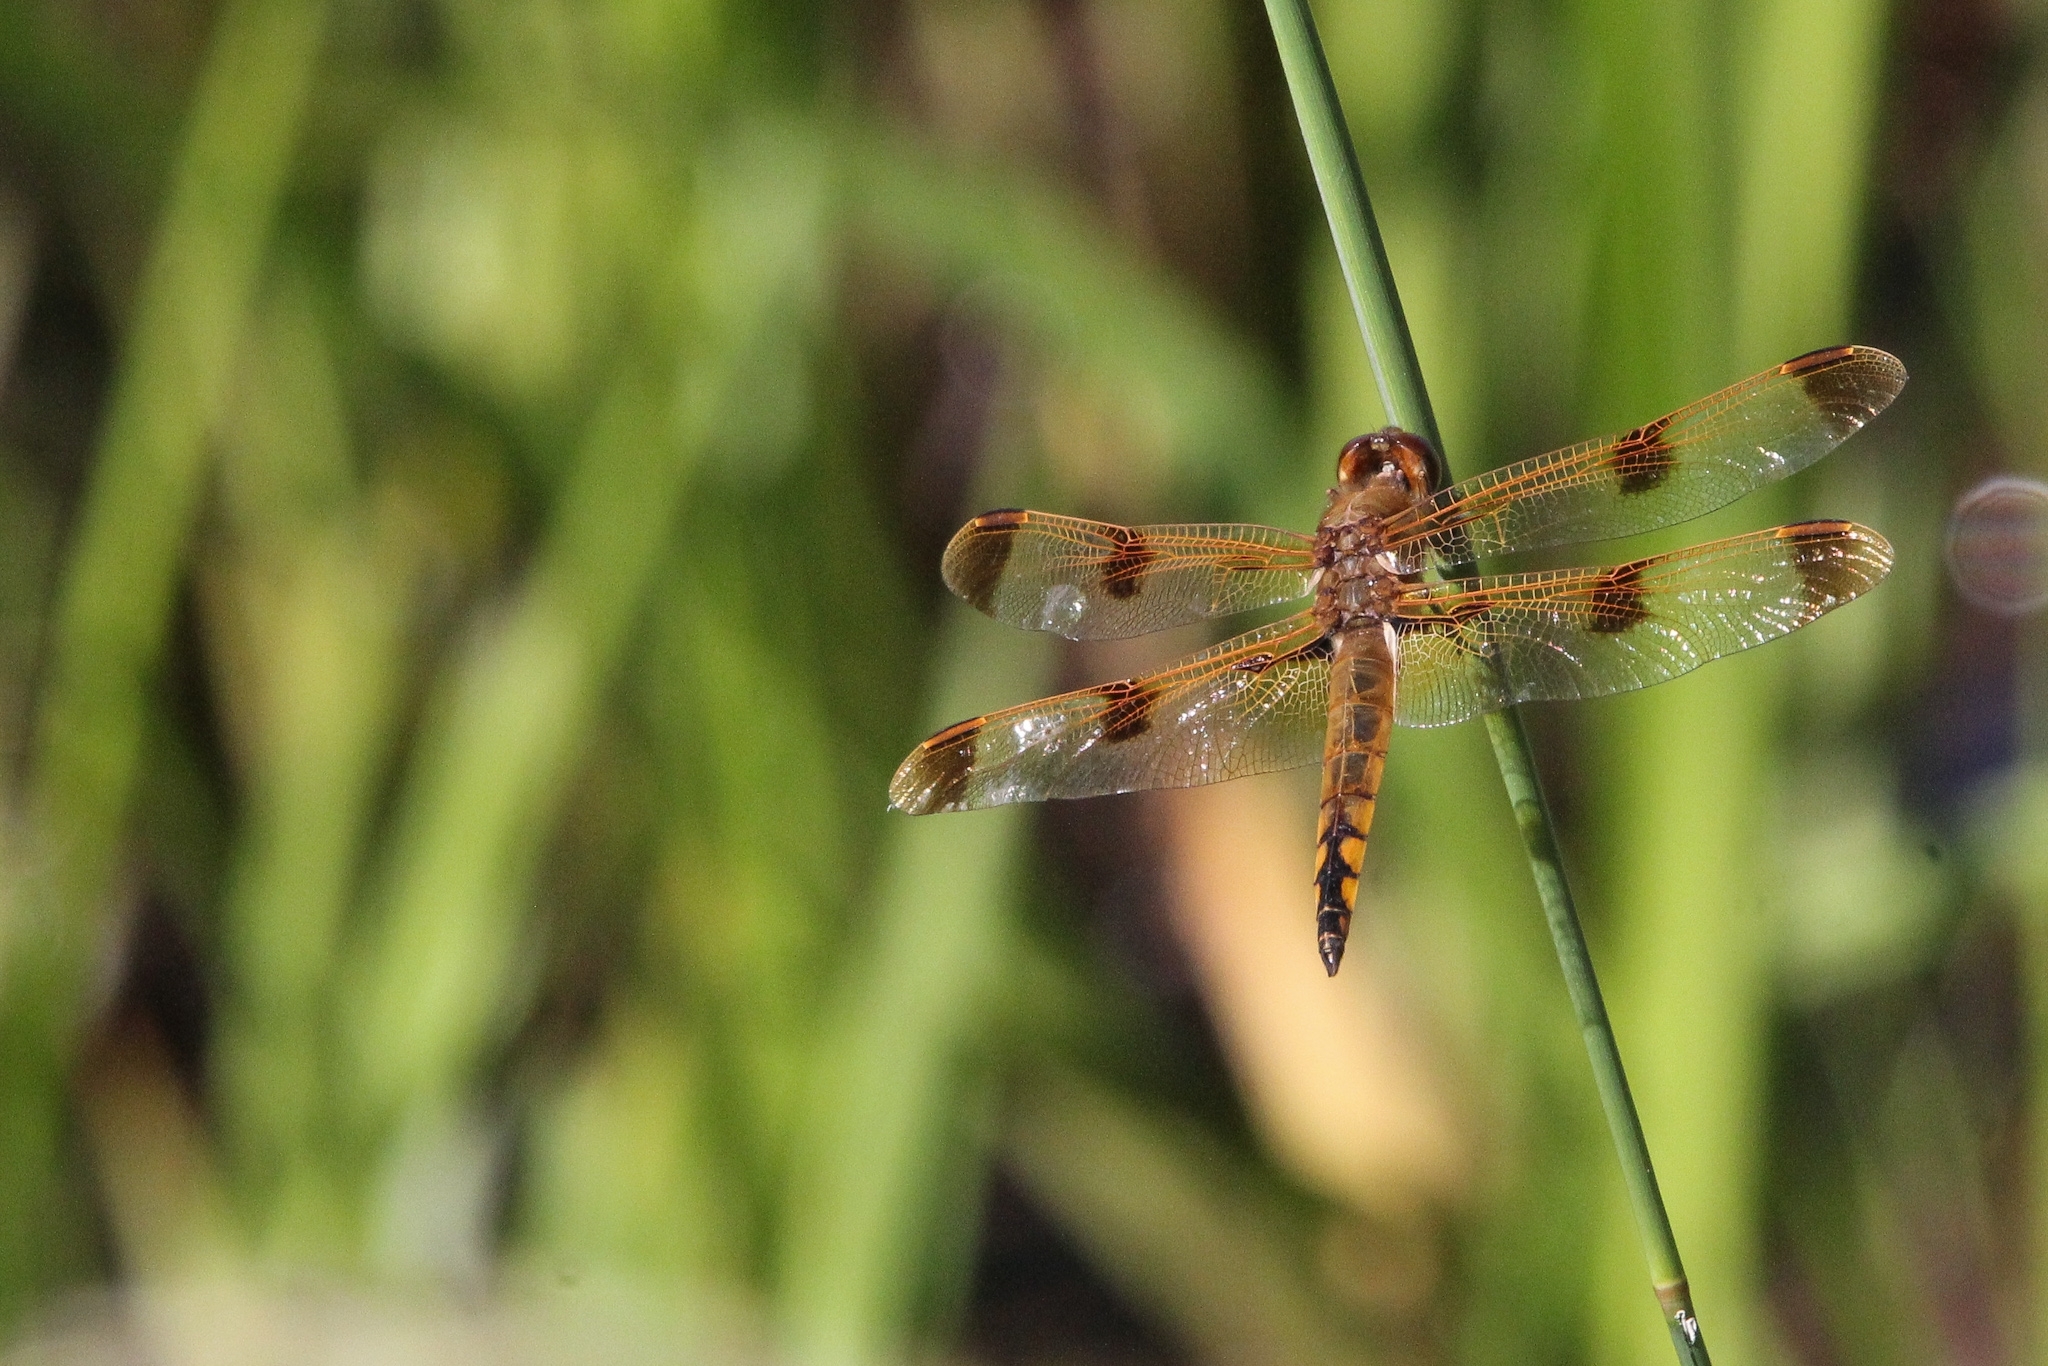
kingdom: Animalia
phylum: Arthropoda
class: Insecta
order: Odonata
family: Libellulidae
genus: Libellula
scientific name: Libellula semifasciata
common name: Painted skimmer
